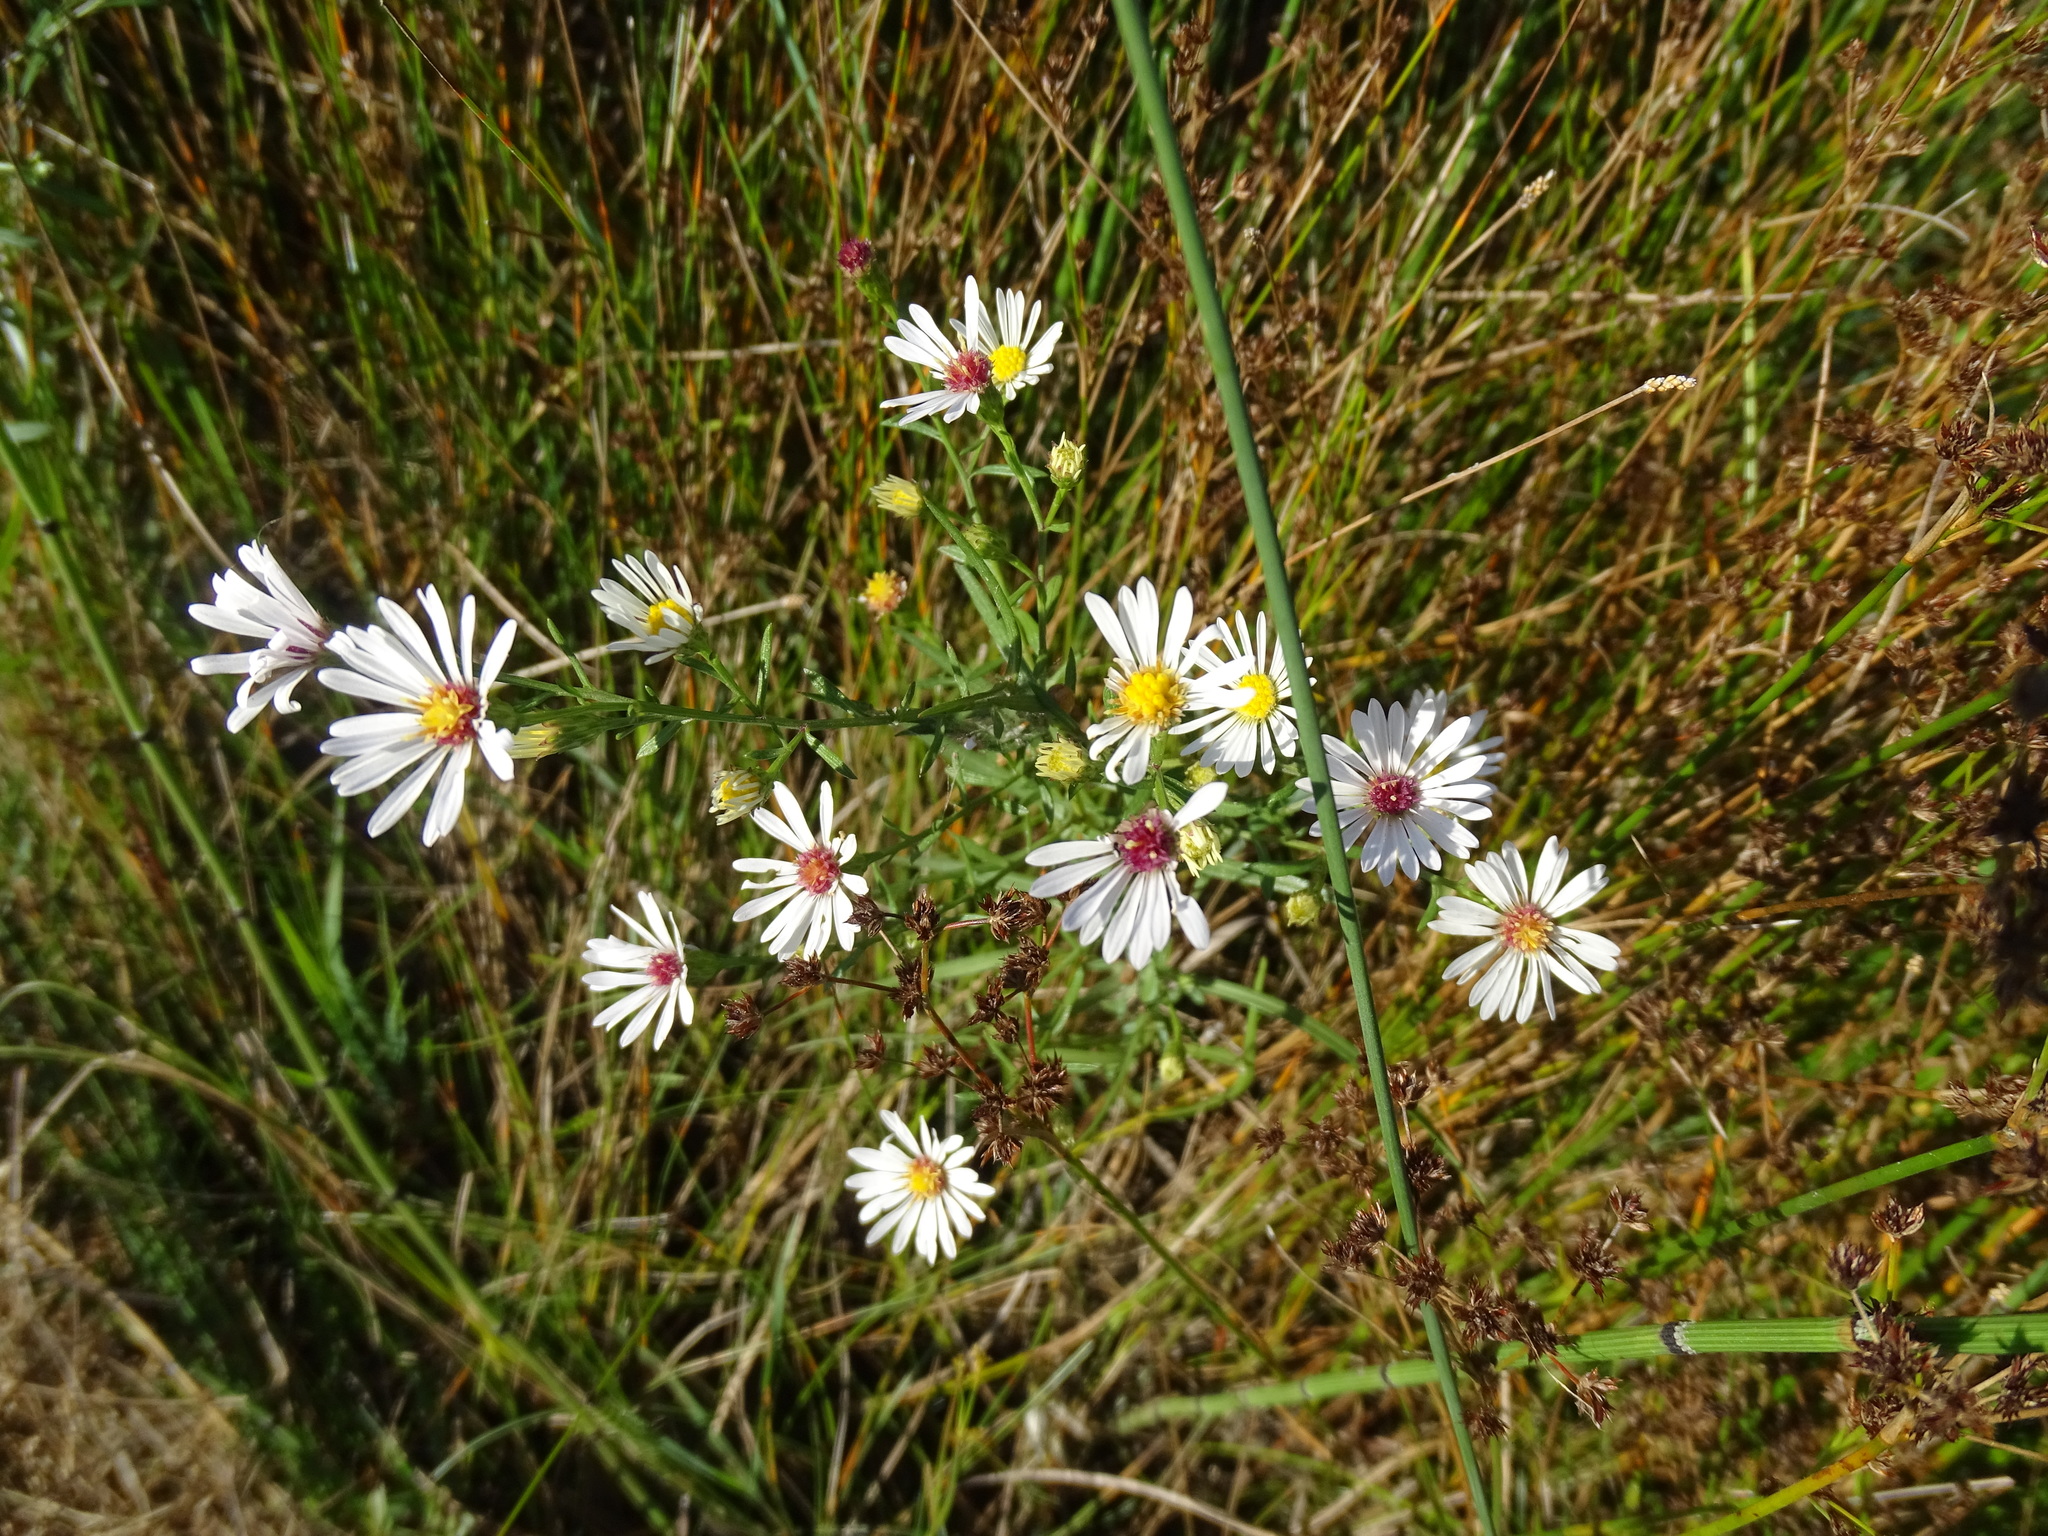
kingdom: Plantae
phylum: Tracheophyta
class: Magnoliopsida
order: Asterales
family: Asteraceae
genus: Symphyotrichum
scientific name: Symphyotrichum dumosum
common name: Bushy aster
